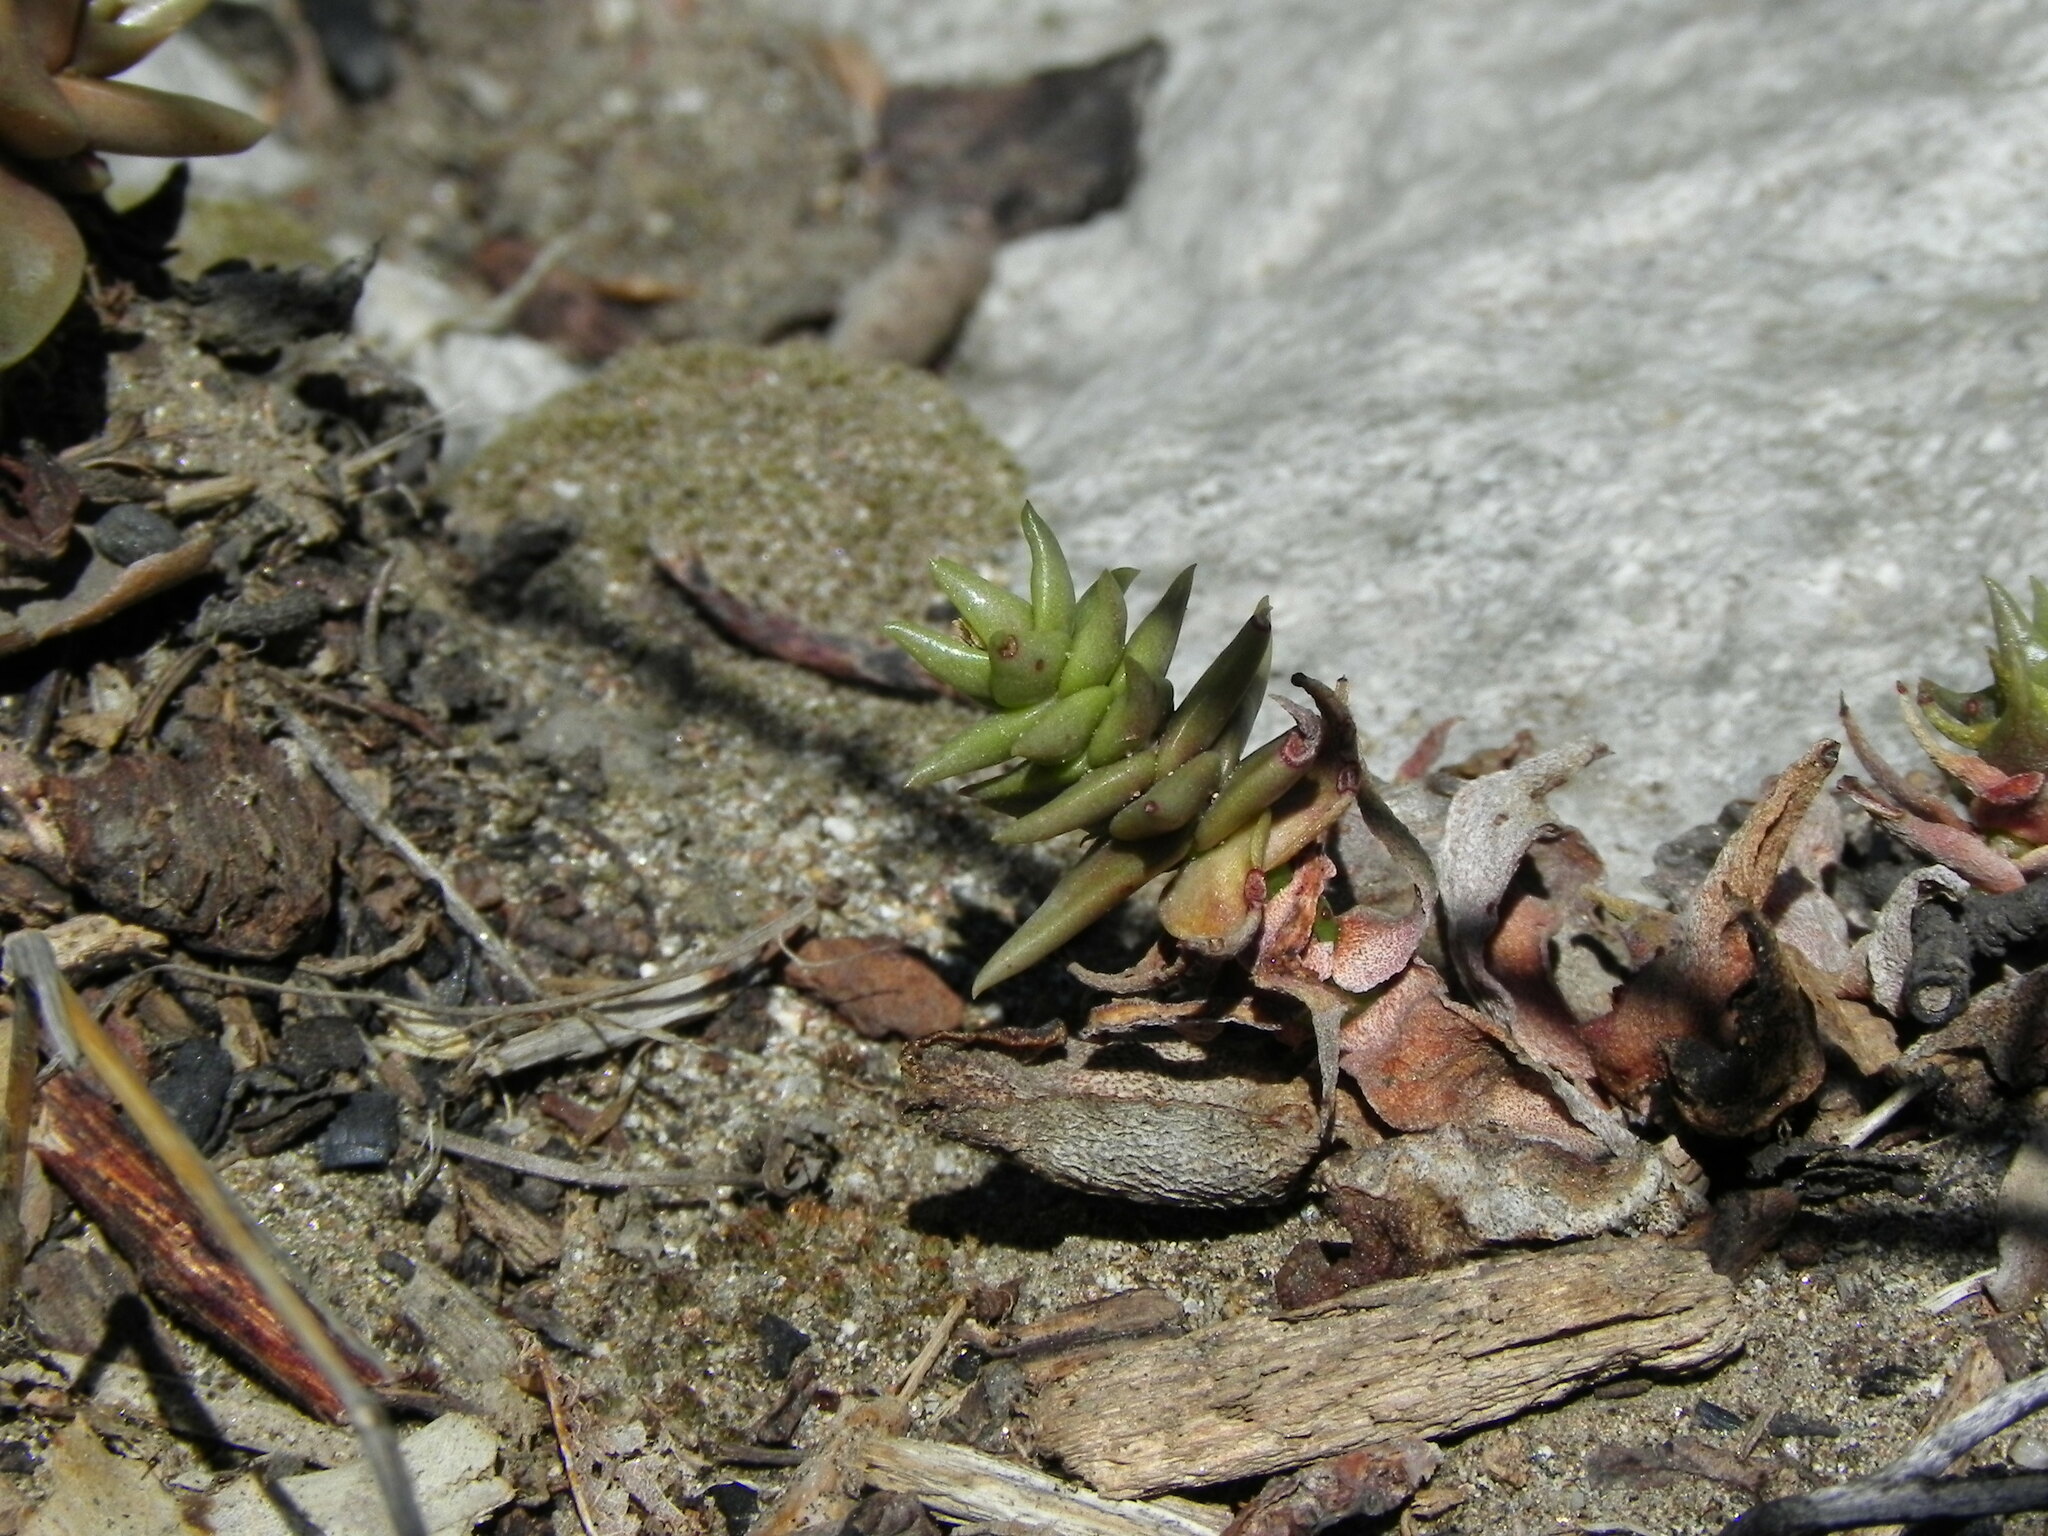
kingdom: Plantae
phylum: Tracheophyta
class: Magnoliopsida
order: Saxifragales
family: Crassulaceae
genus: Dudleya
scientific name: Dudleya cymosa
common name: Canyon dudleya
